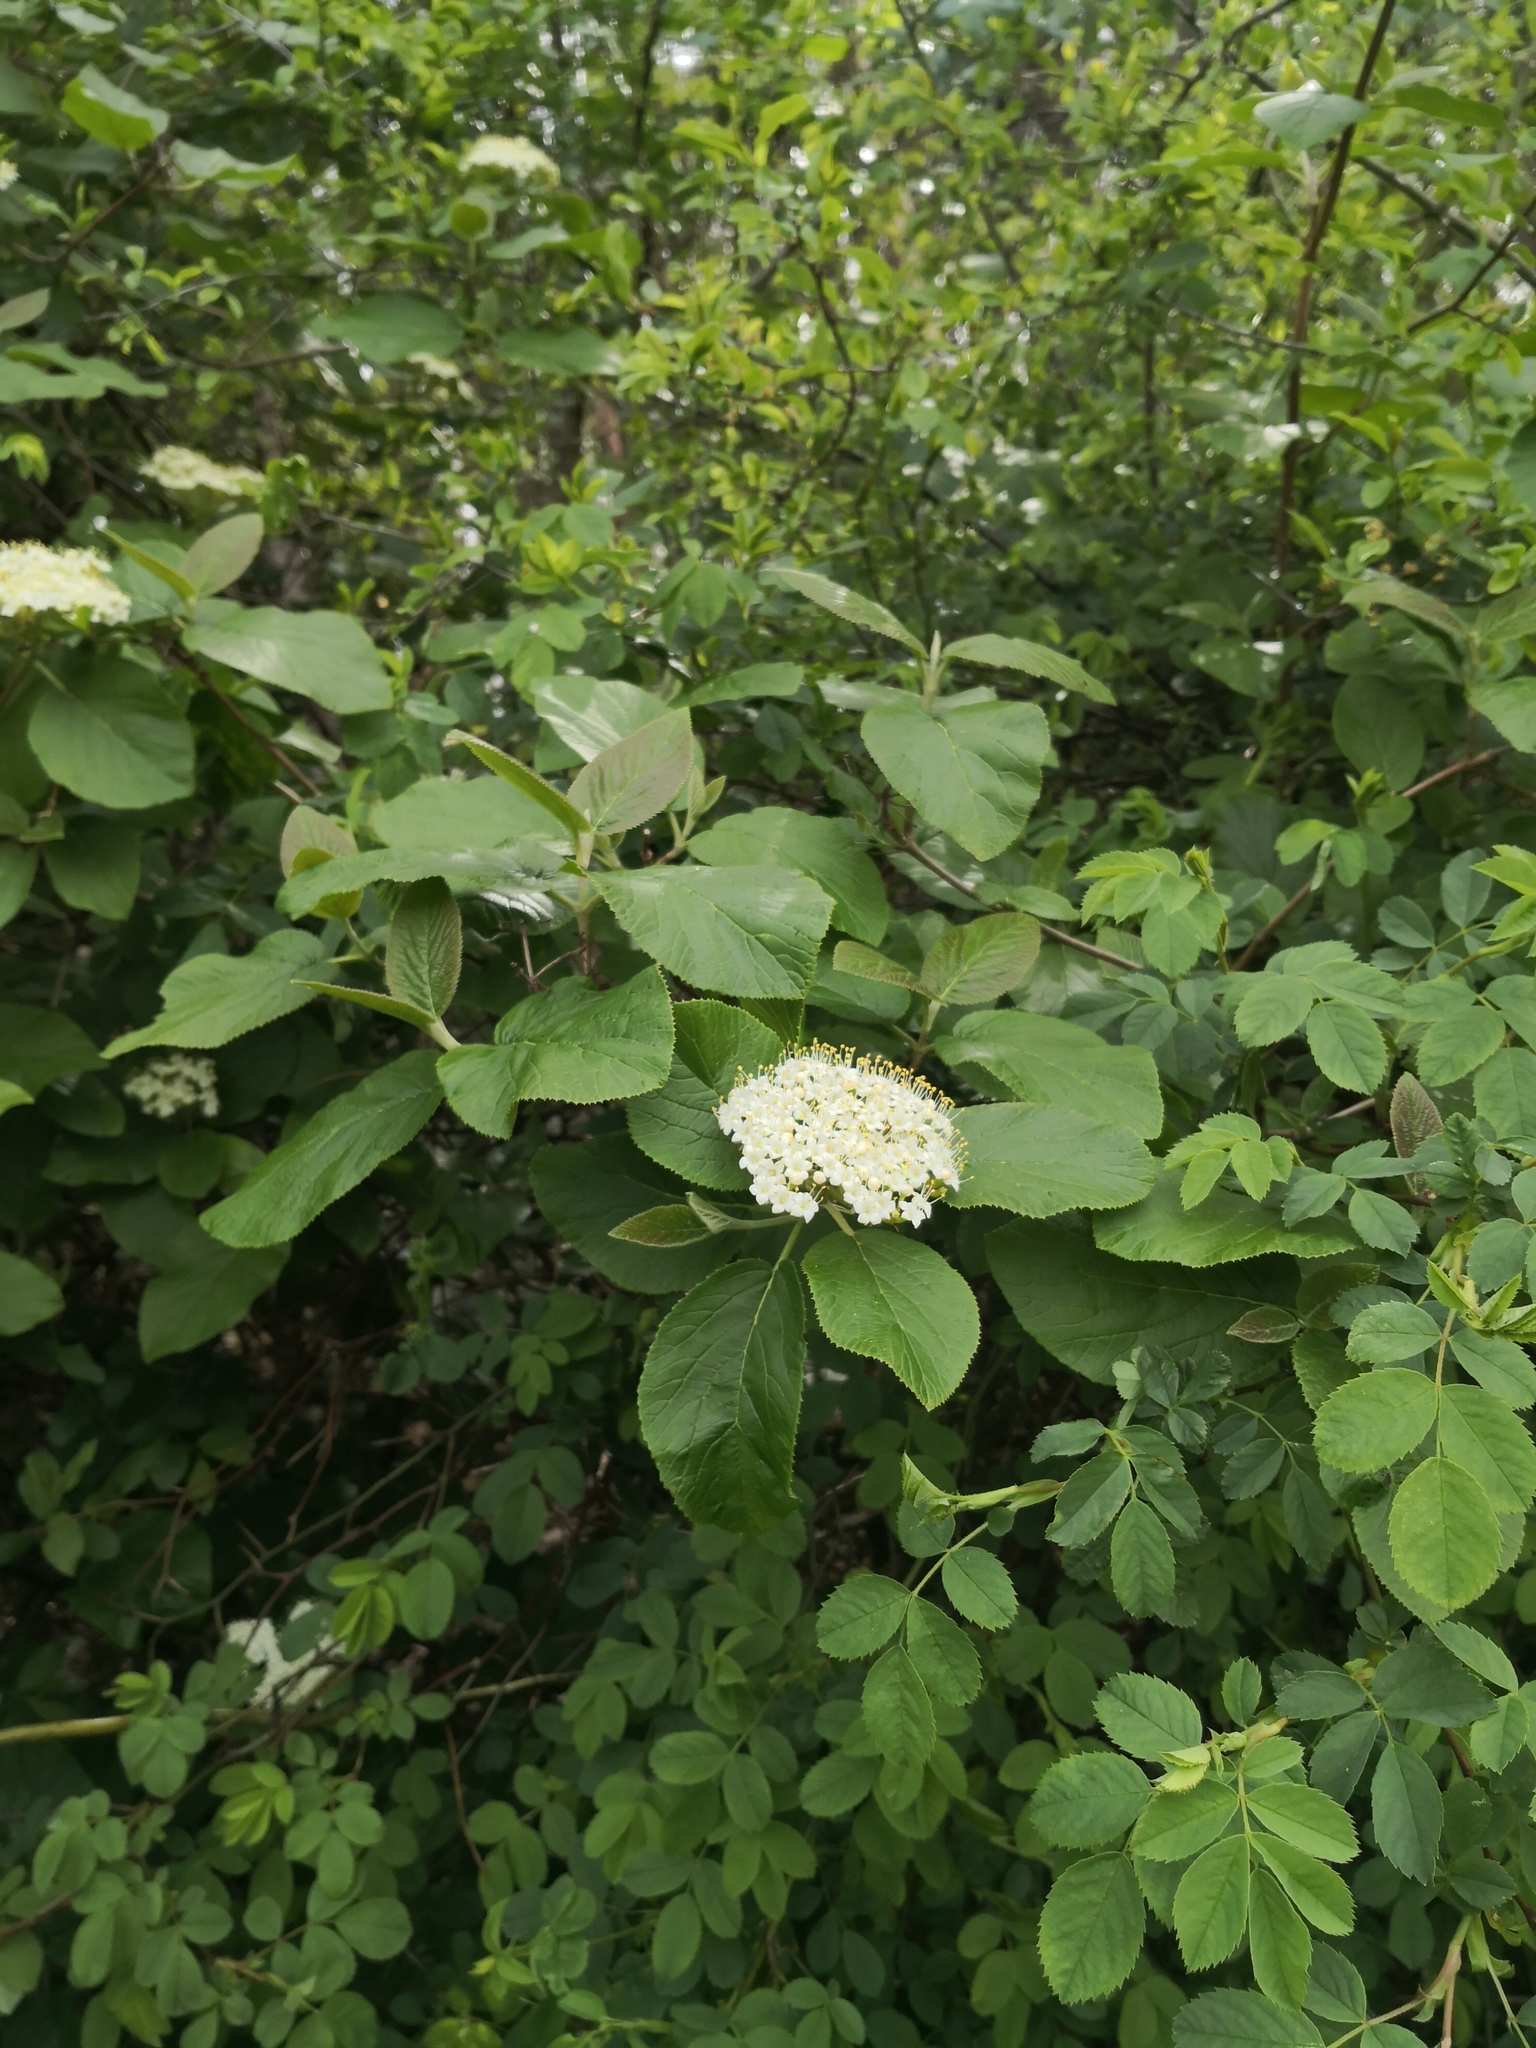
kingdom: Plantae
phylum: Tracheophyta
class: Magnoliopsida
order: Dipsacales
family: Viburnaceae
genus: Viburnum
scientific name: Viburnum lantana
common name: Wayfaring tree
